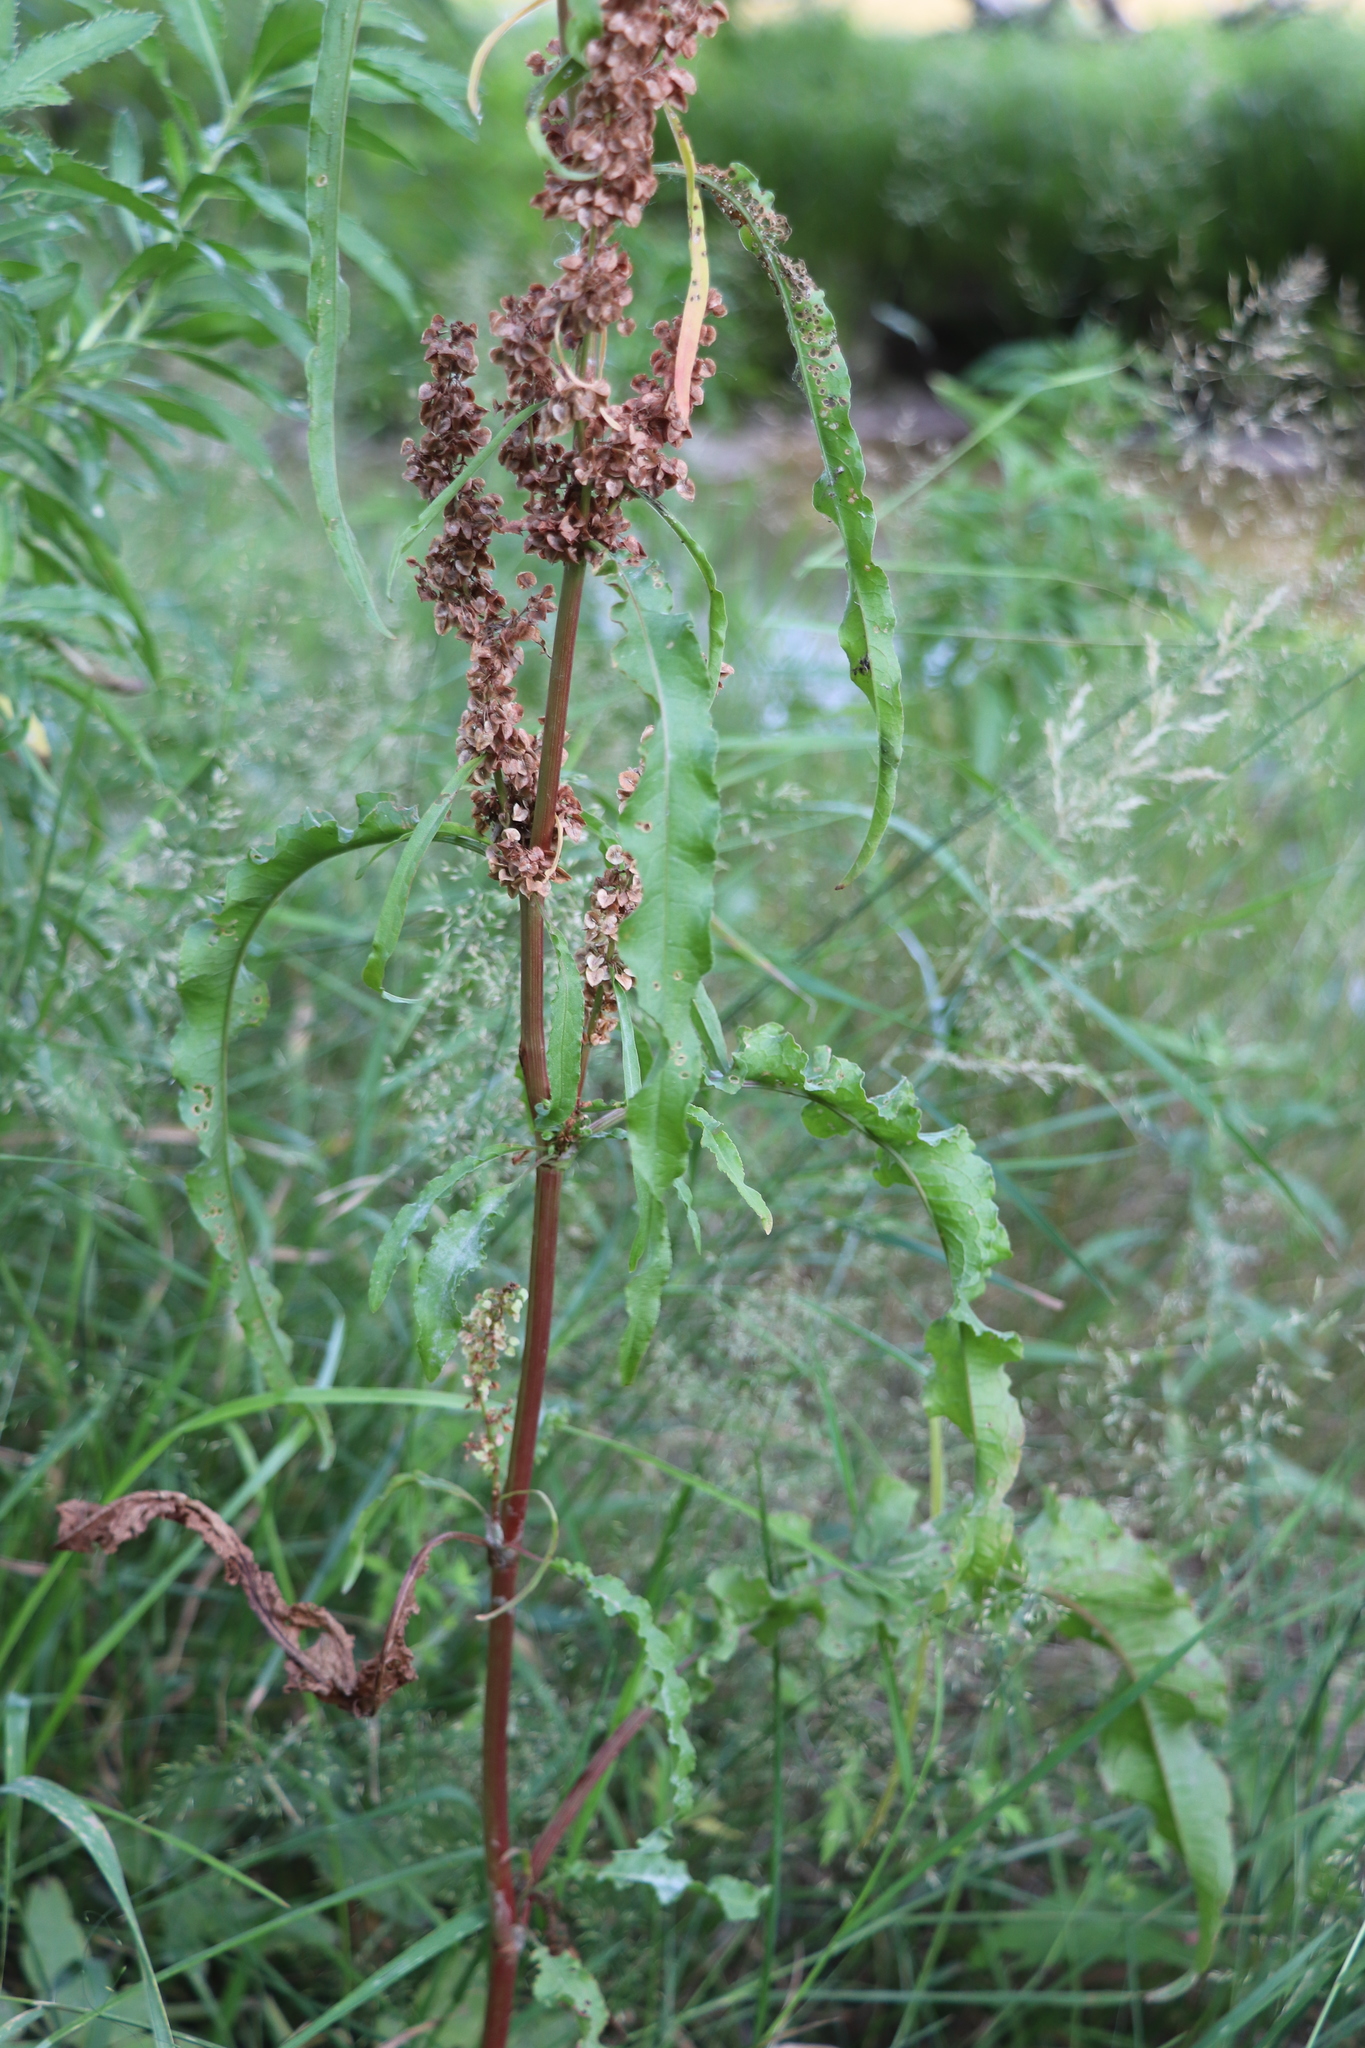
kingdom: Plantae
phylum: Tracheophyta
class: Magnoliopsida
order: Caryophyllales
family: Polygonaceae
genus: Rumex
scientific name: Rumex pseudonatronatus
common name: Field dock
